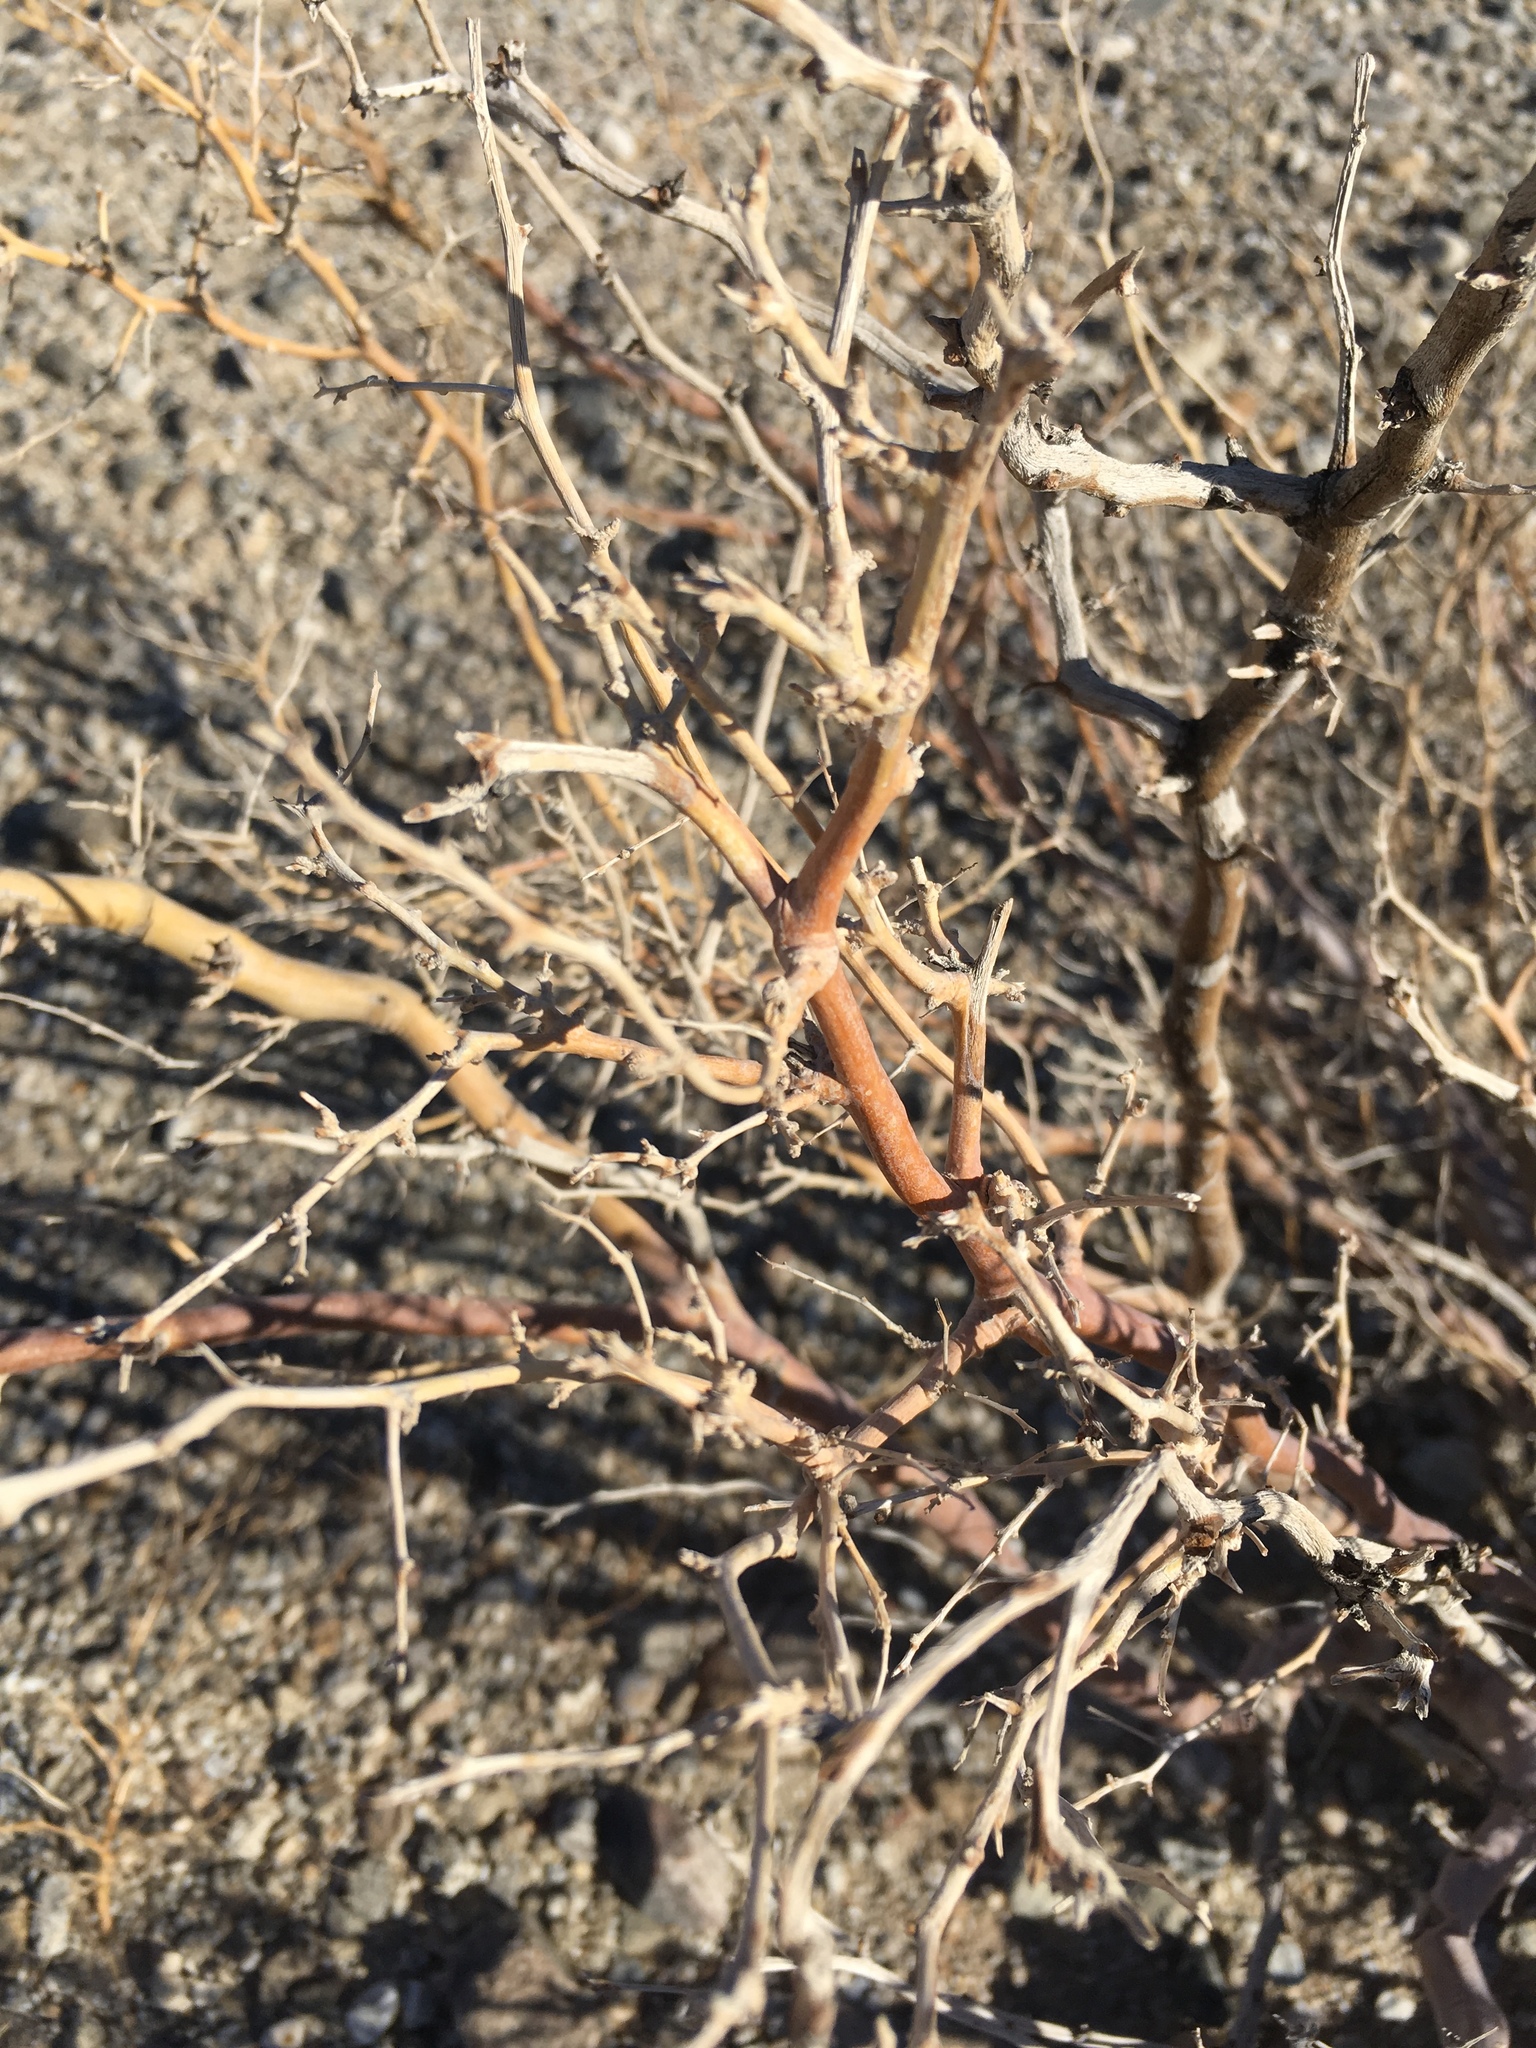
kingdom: Plantae
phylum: Tracheophyta
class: Magnoliopsida
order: Fabales
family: Fabaceae
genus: Psorothamnus
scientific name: Psorothamnus schottii
